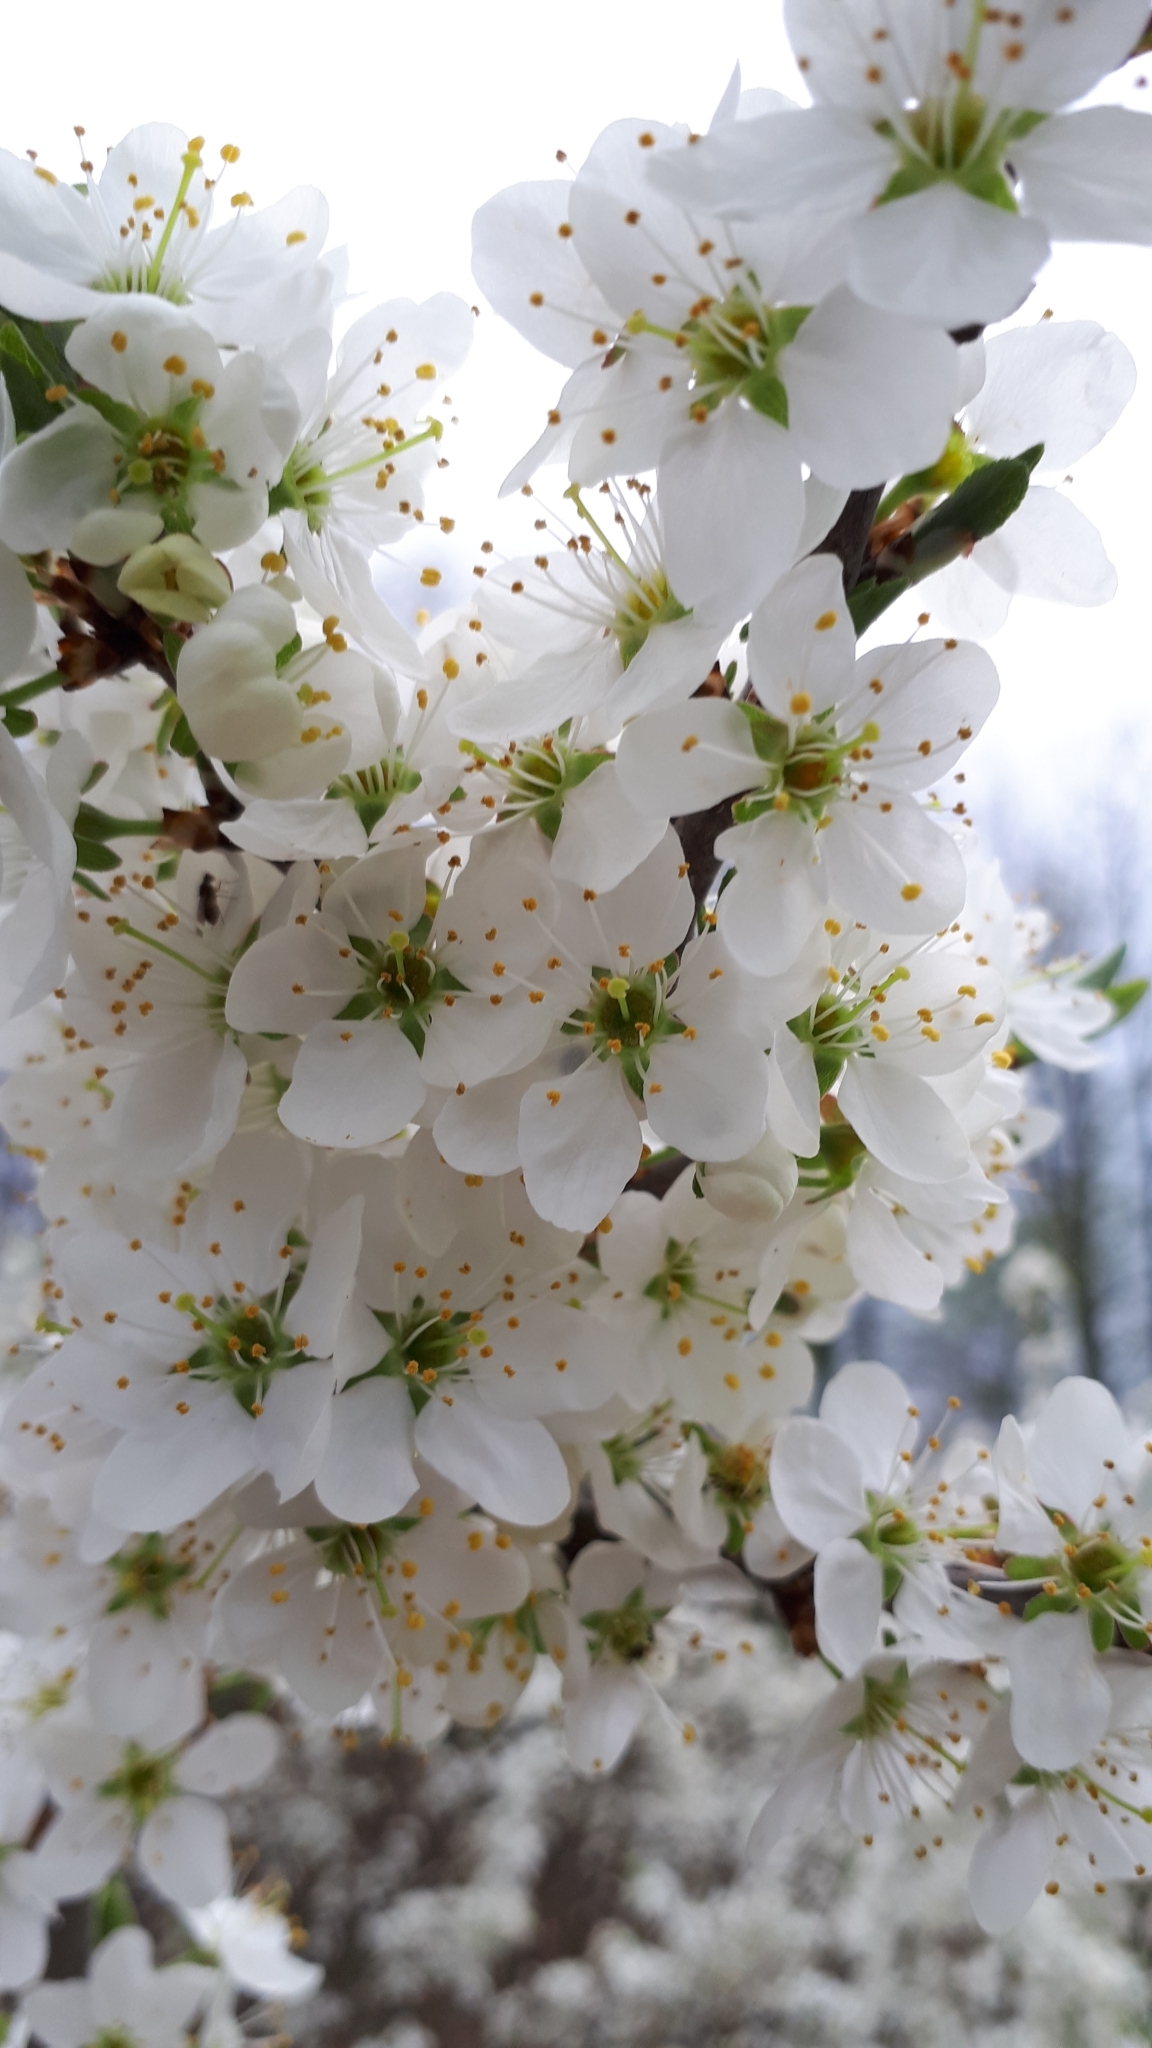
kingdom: Plantae
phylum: Tracheophyta
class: Magnoliopsida
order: Rosales
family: Rosaceae
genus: Prunus
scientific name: Prunus spinosa
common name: Blackthorn
